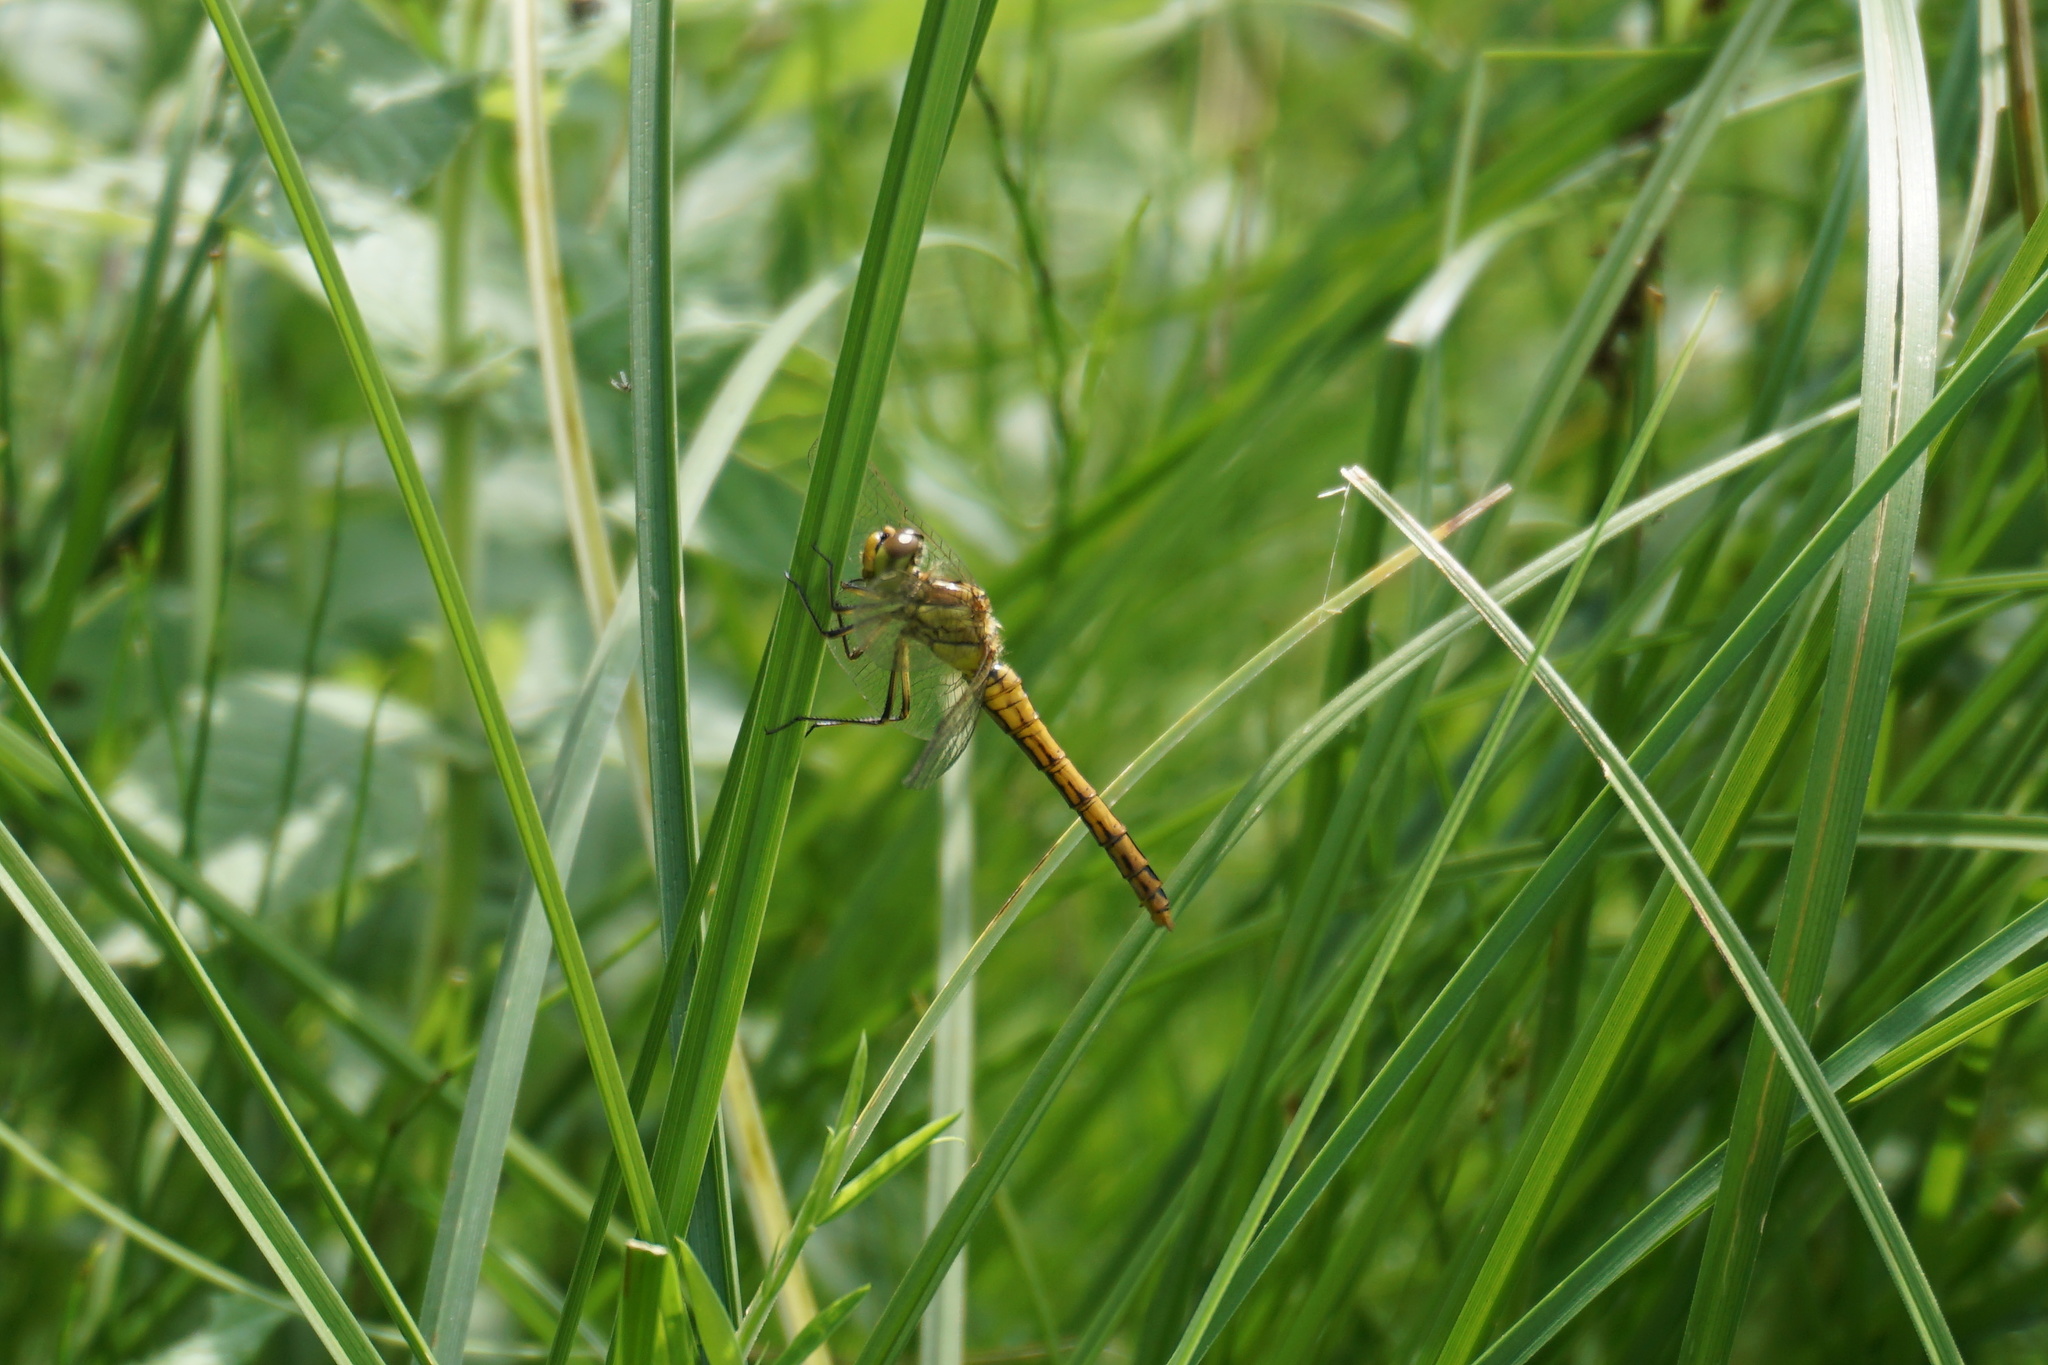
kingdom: Animalia
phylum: Arthropoda
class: Insecta
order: Odonata
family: Libellulidae
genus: Sympetrum
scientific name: Sympetrum vulgatum
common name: Vagrant darter
